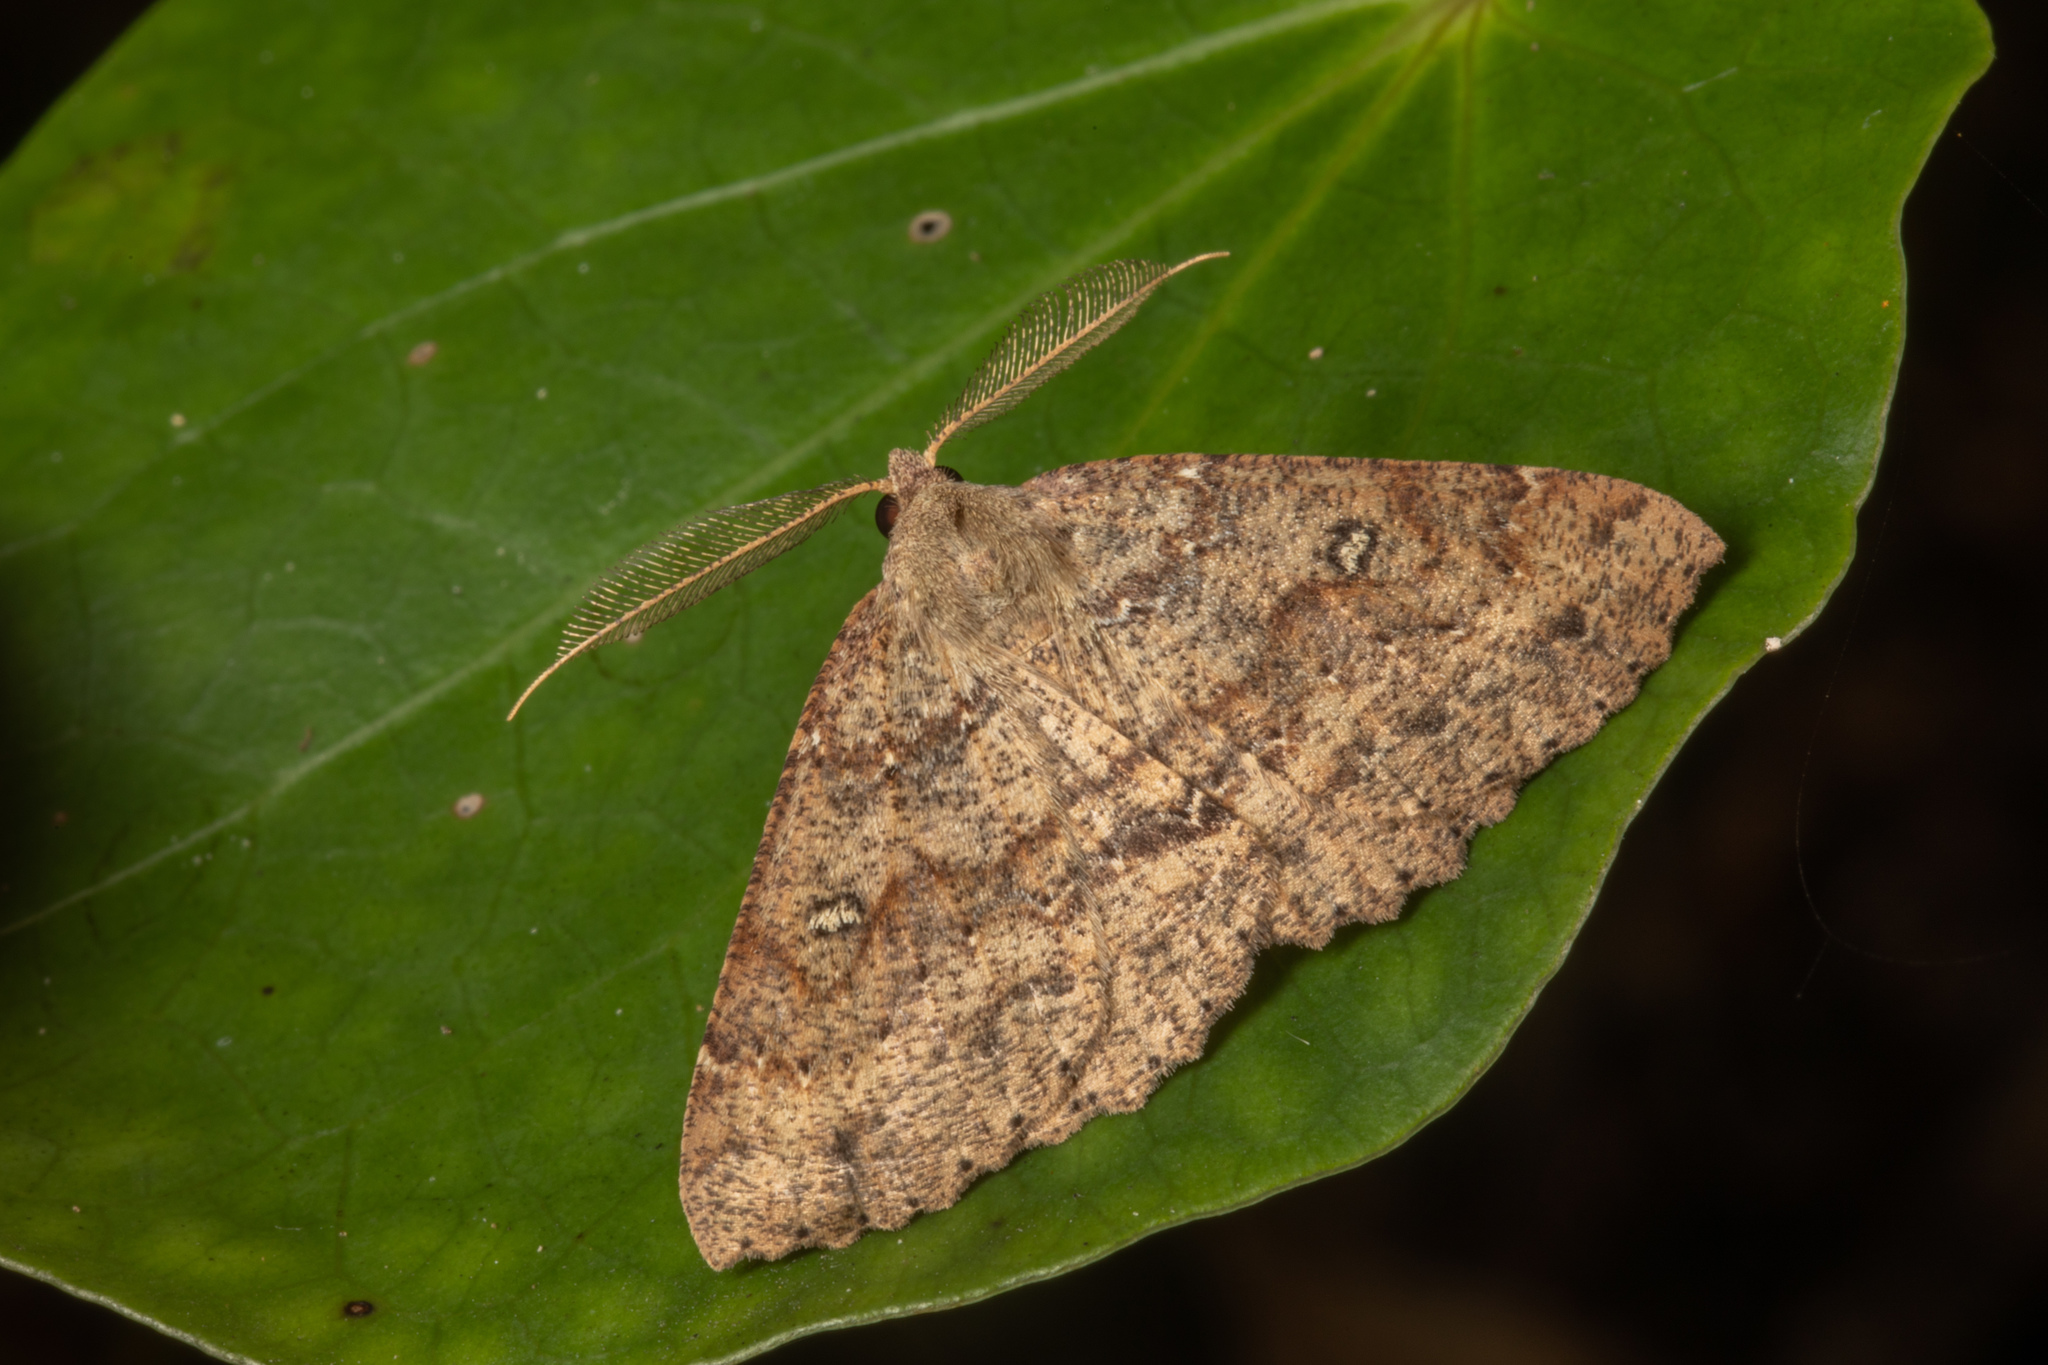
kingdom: Animalia
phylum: Arthropoda
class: Insecta
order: Lepidoptera
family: Geometridae
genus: Cleora
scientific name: Cleora scriptaria
